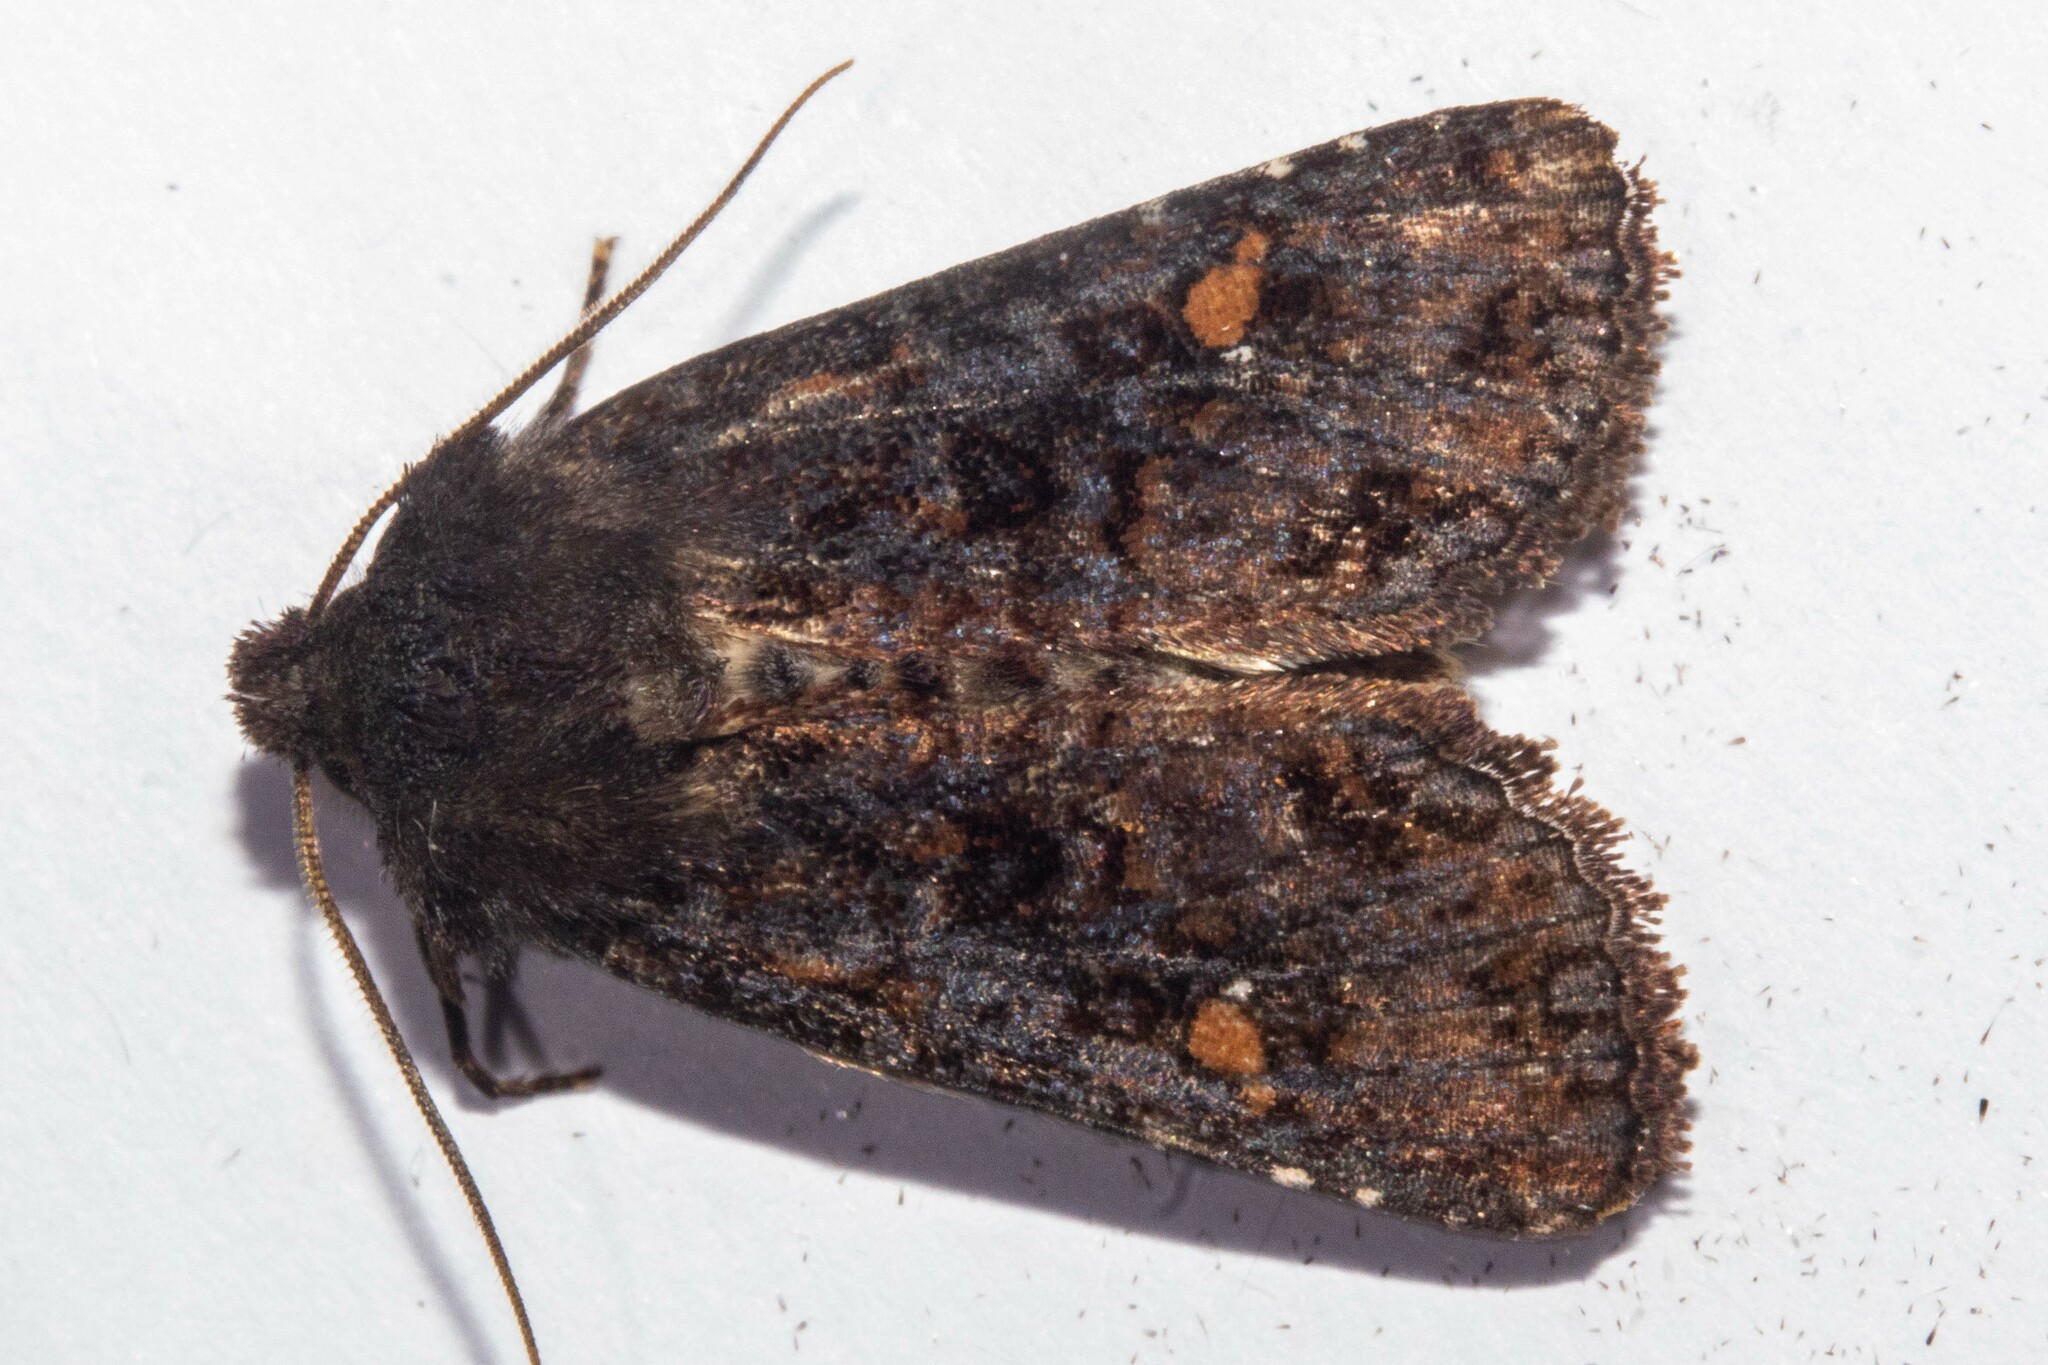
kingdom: Animalia
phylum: Arthropoda
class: Insecta
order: Lepidoptera
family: Noctuidae
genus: Meterana
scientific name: Meterana vitiosa
